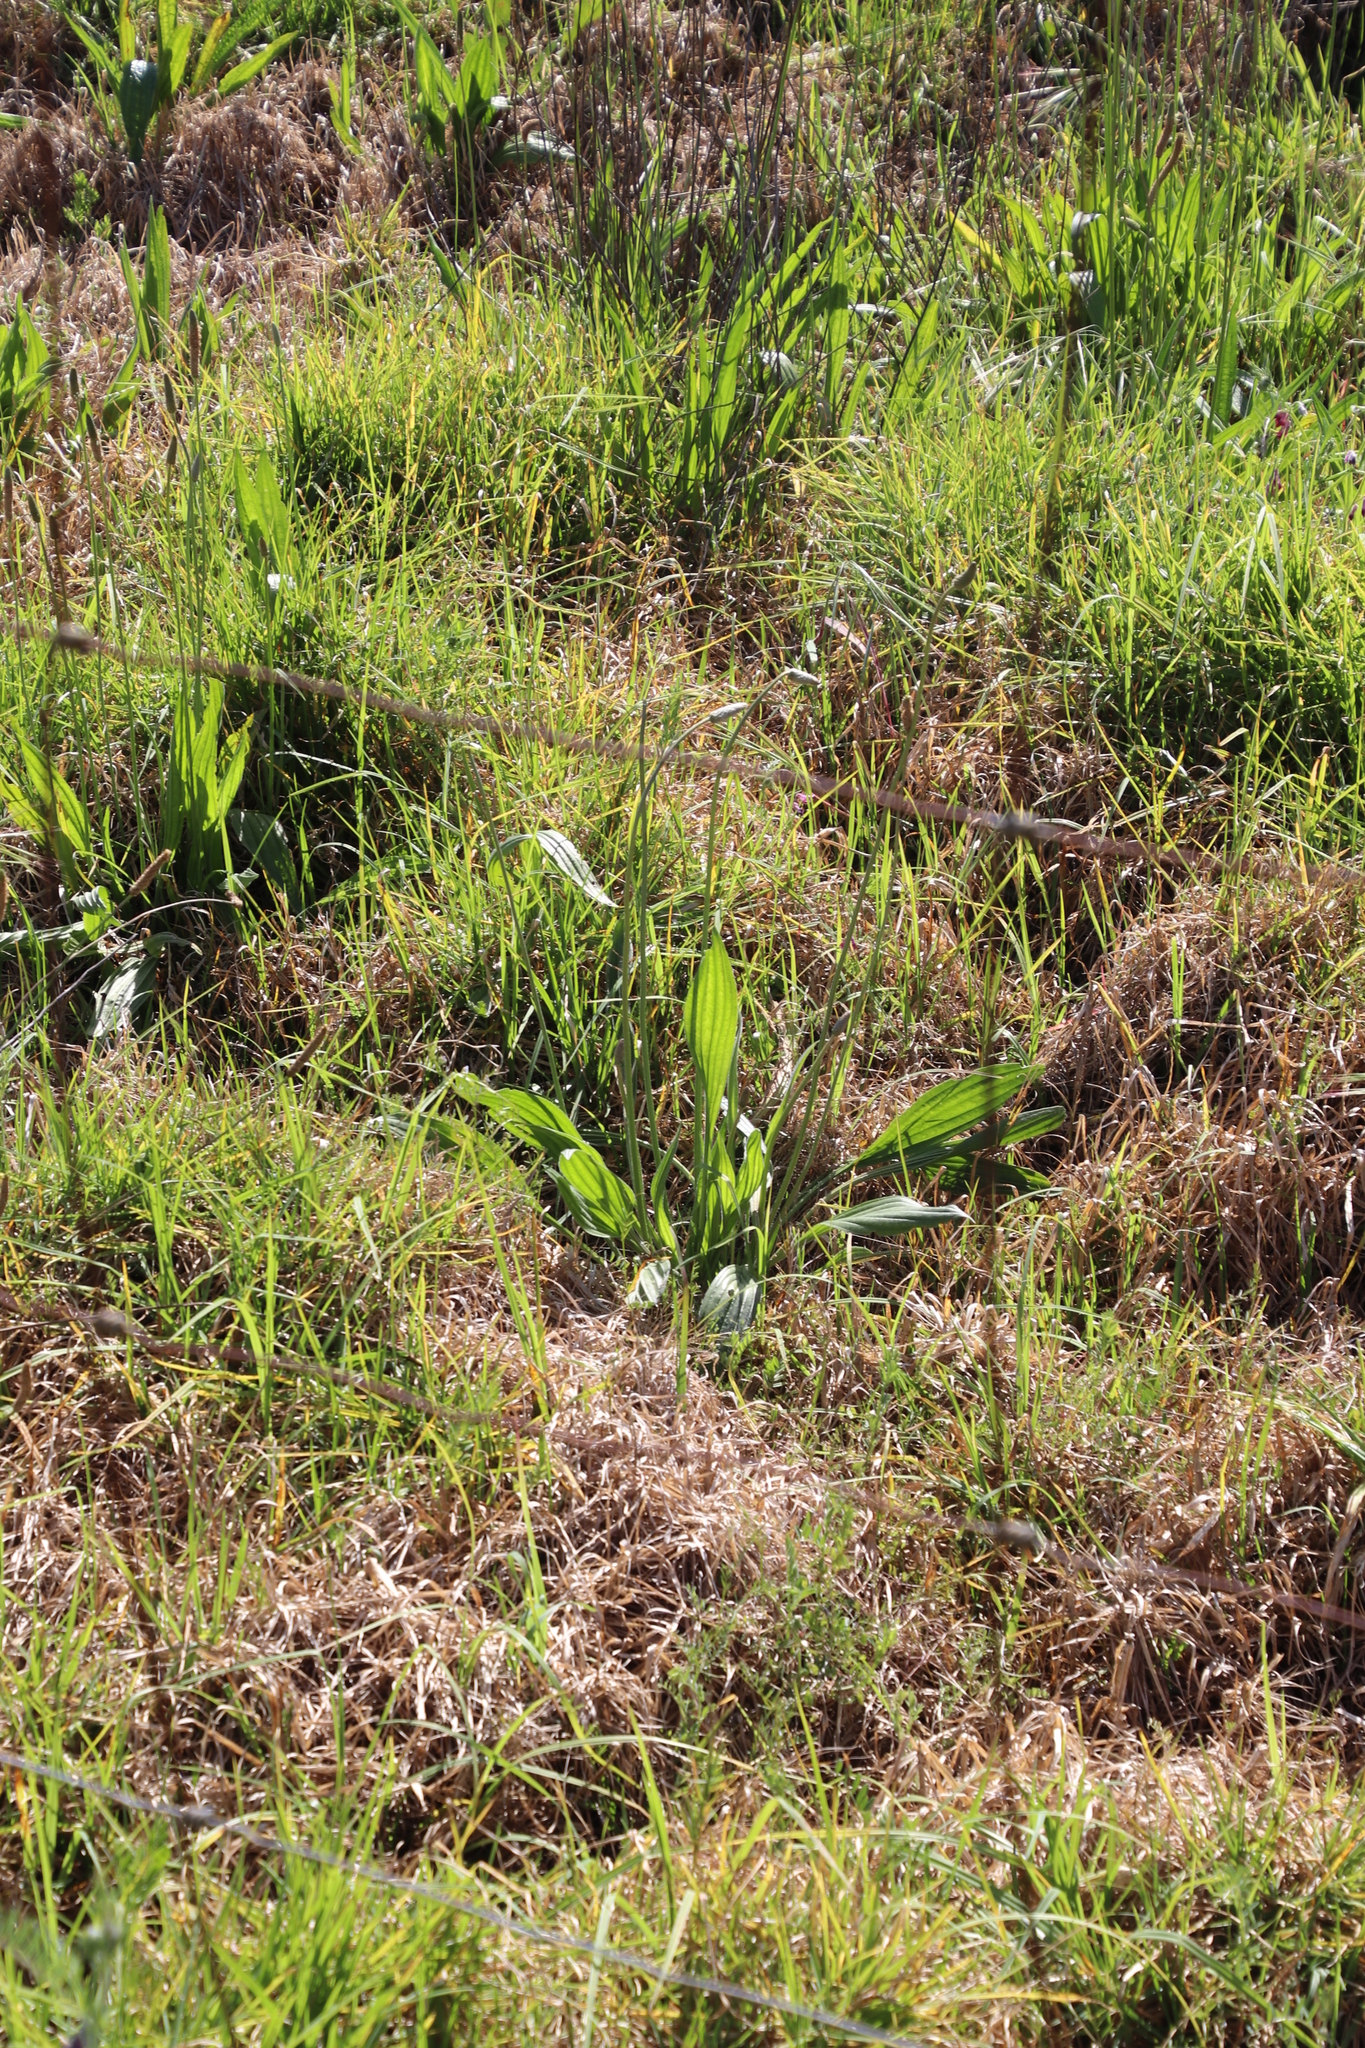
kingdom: Plantae
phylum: Tracheophyta
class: Magnoliopsida
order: Lamiales
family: Plantaginaceae
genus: Plantago
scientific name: Plantago lanceolata
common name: Ribwort plantain
